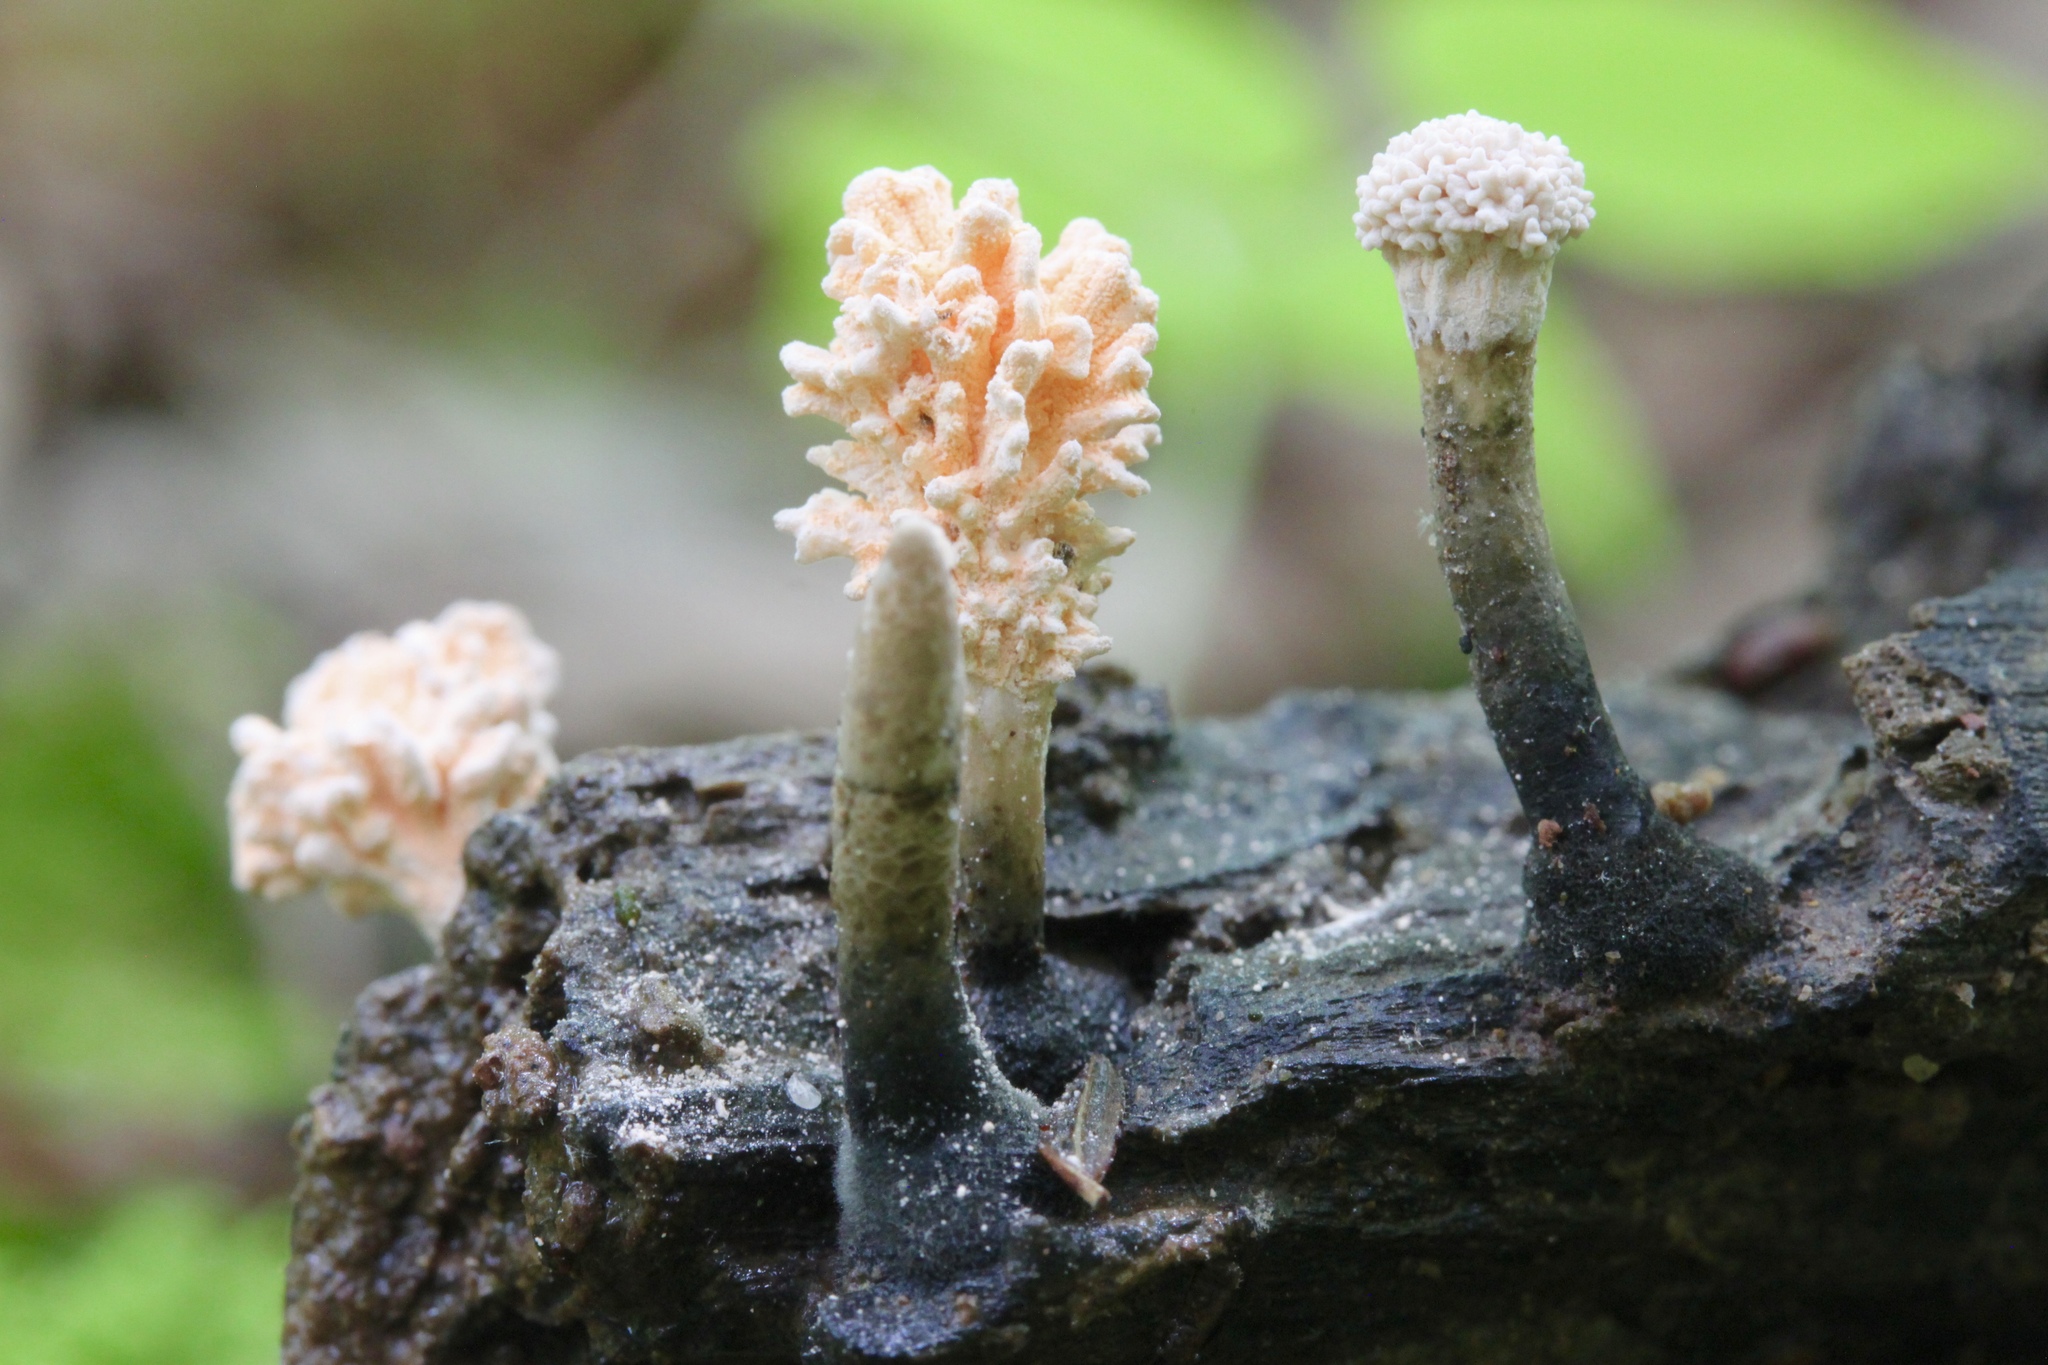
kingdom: Fungi
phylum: Ascomycota
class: Sordariomycetes
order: Xylariales
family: Xylariaceae
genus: Xylaria
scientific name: Xylaria cubensis
